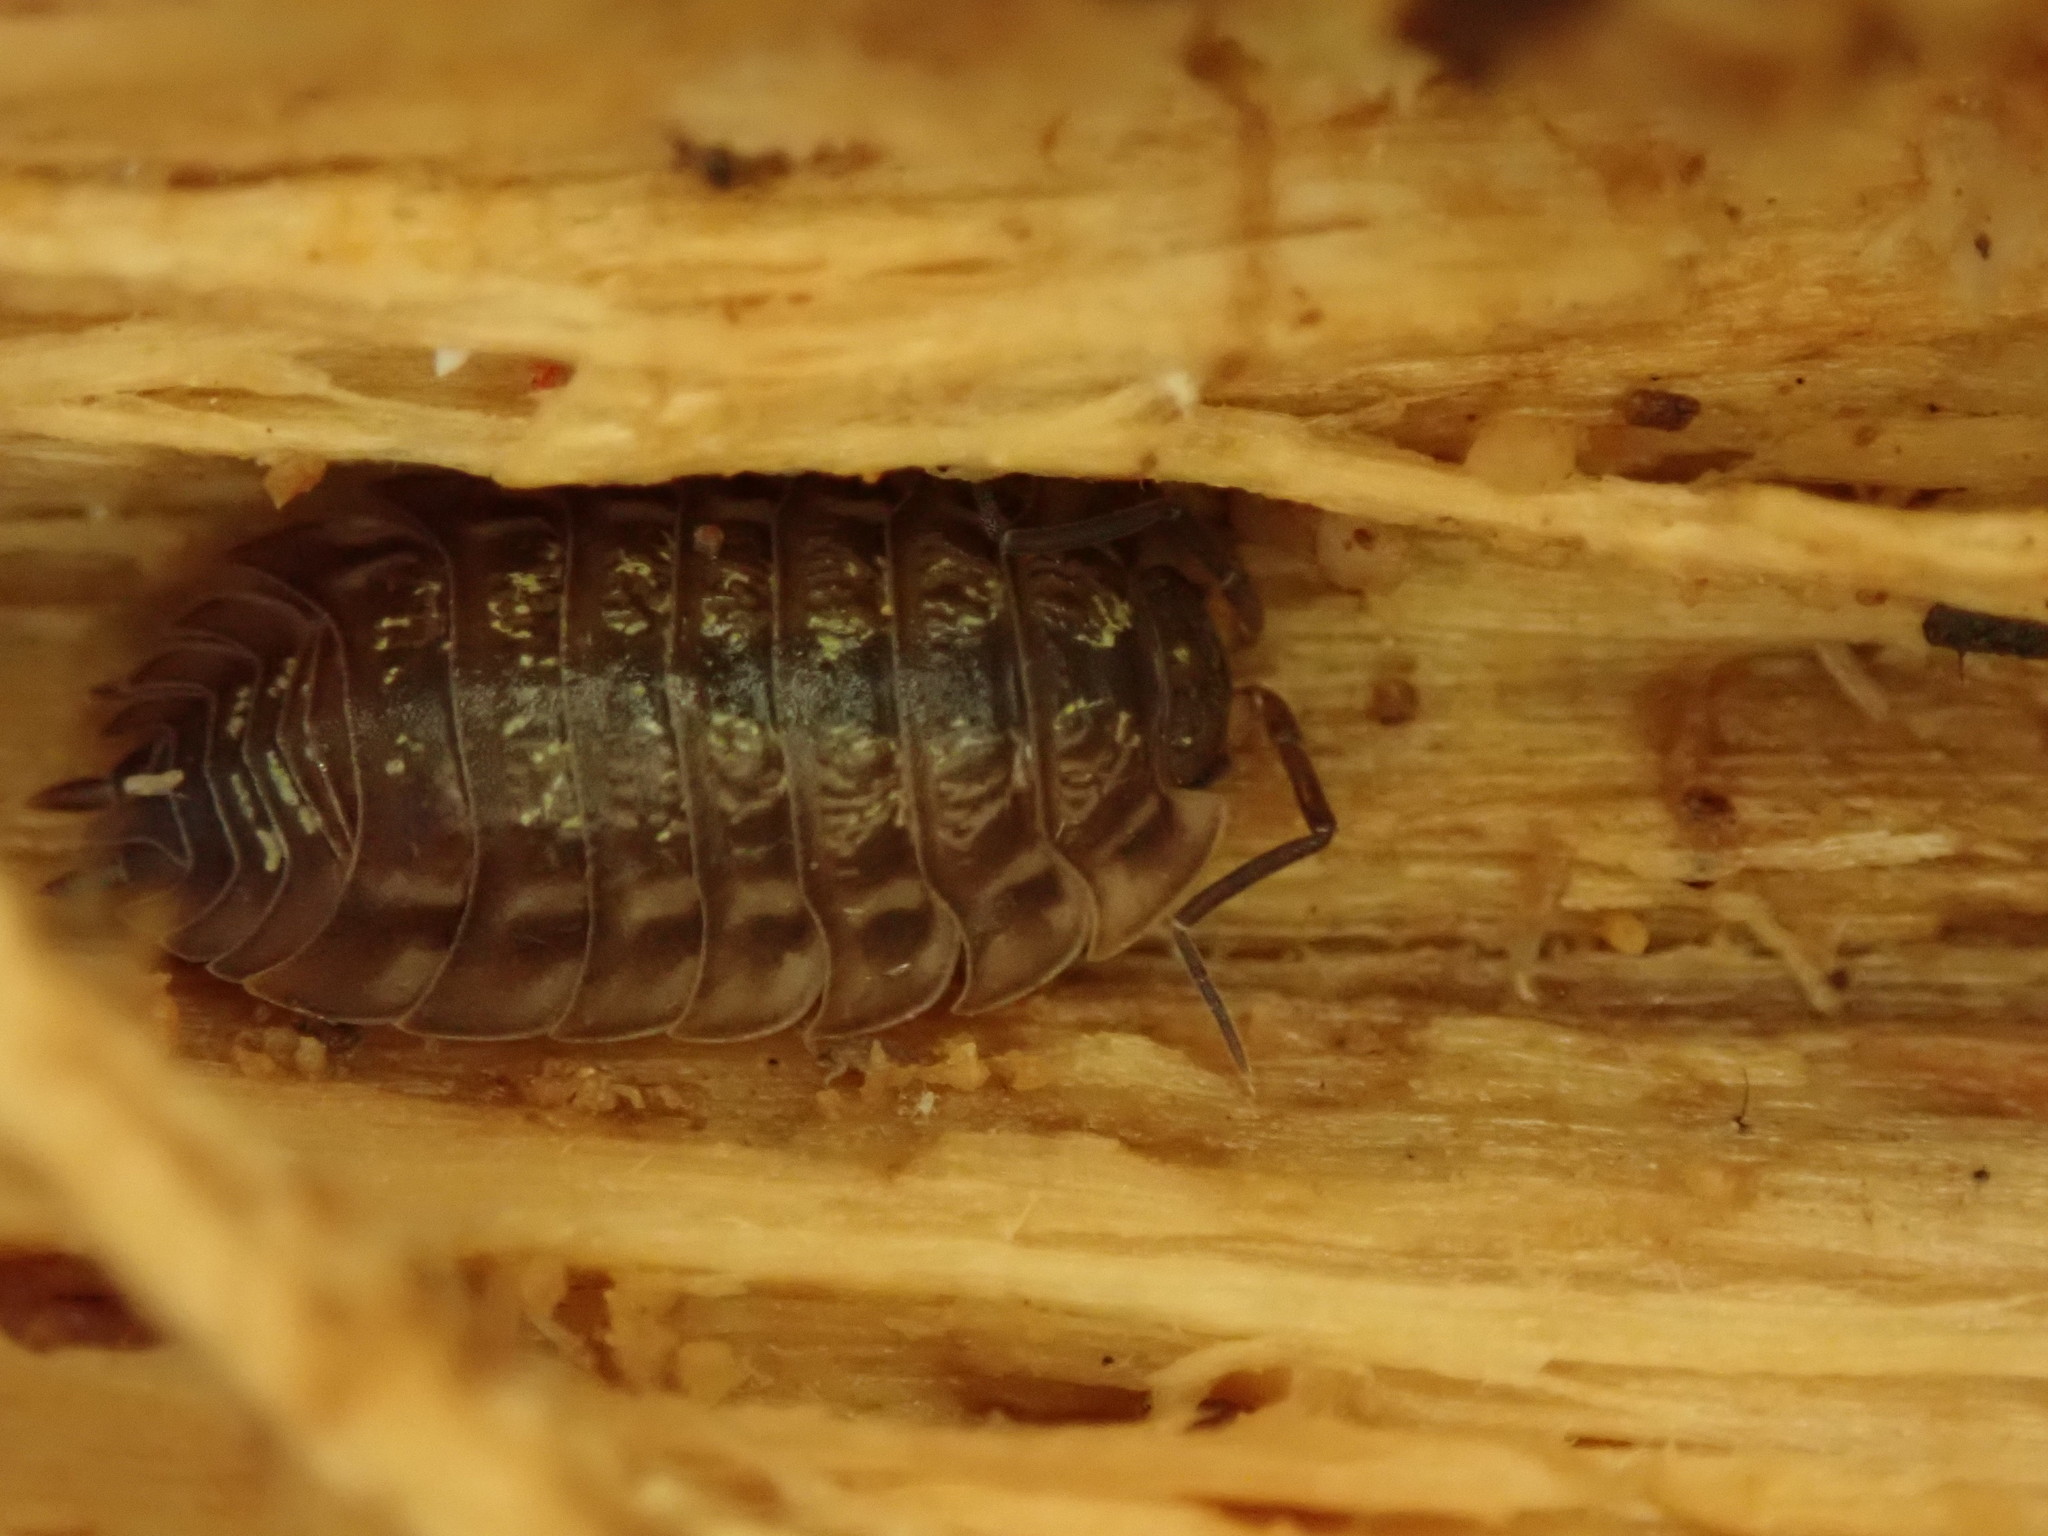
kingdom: Animalia
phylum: Arthropoda
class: Malacostraca
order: Isopoda
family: Oniscidae
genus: Oniscus
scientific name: Oniscus asellus
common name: Common shiny woodlouse
